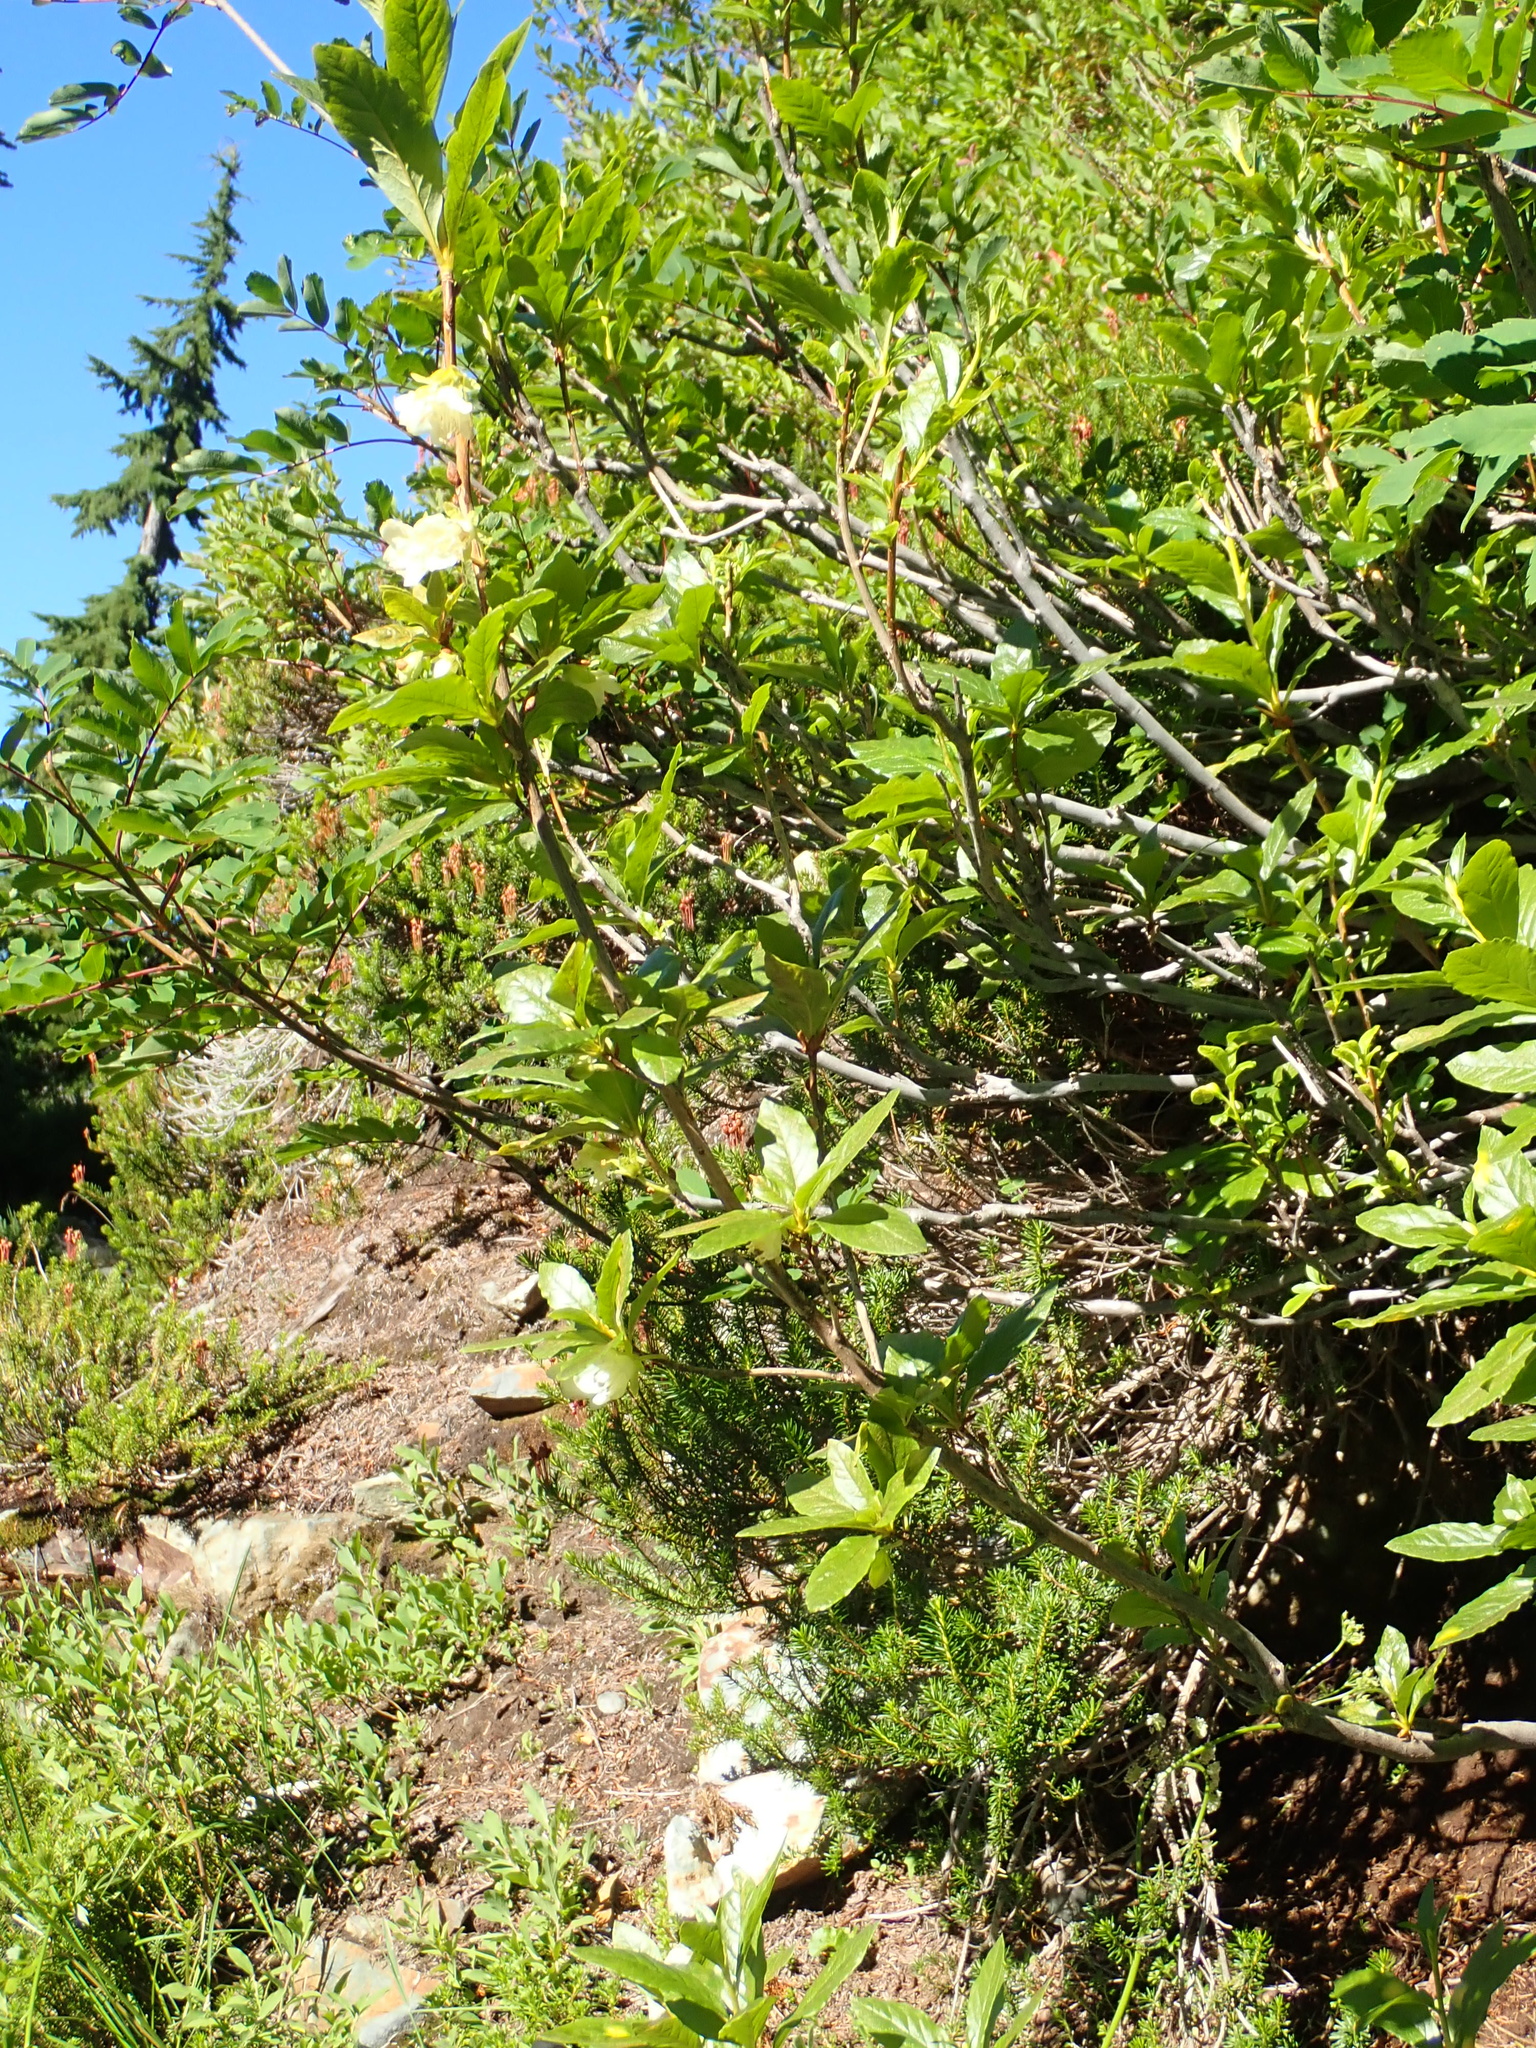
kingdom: Plantae
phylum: Tracheophyta
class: Magnoliopsida
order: Ericales
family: Ericaceae
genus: Rhododendron
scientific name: Rhododendron albiflorum
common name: White rhododendron
